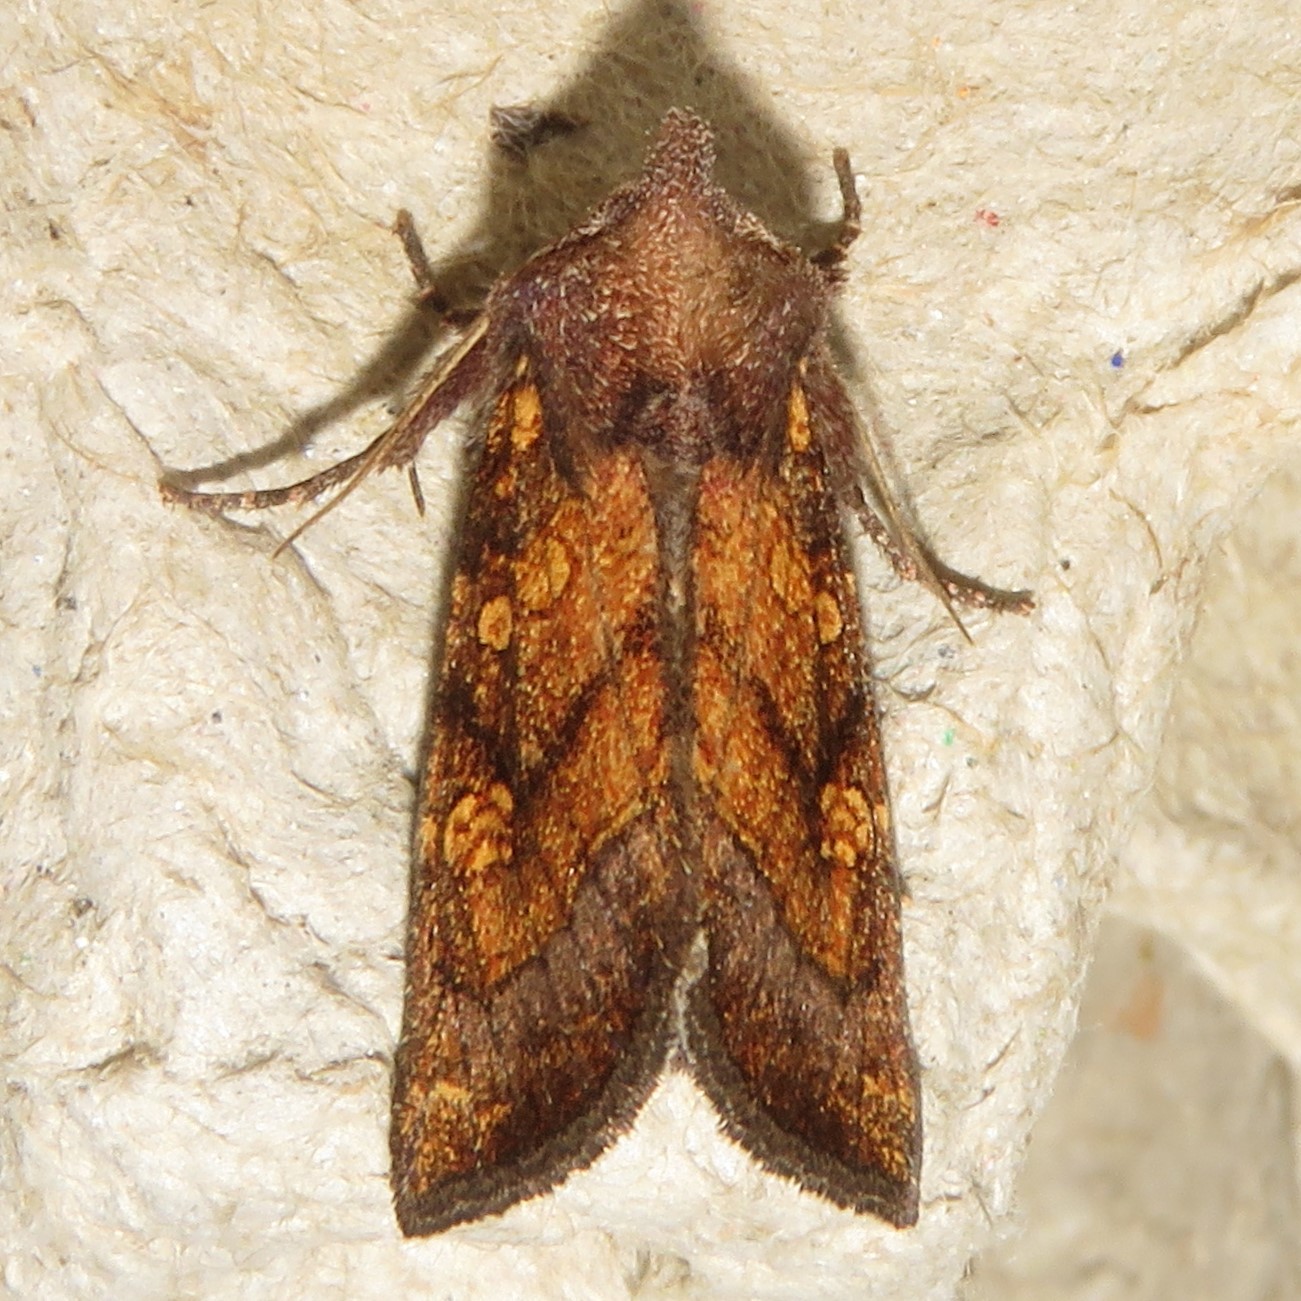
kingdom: Animalia
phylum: Arthropoda
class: Insecta
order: Lepidoptera
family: Noctuidae
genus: Papaipema
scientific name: Papaipema impecuniosa
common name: Aster borer moth
